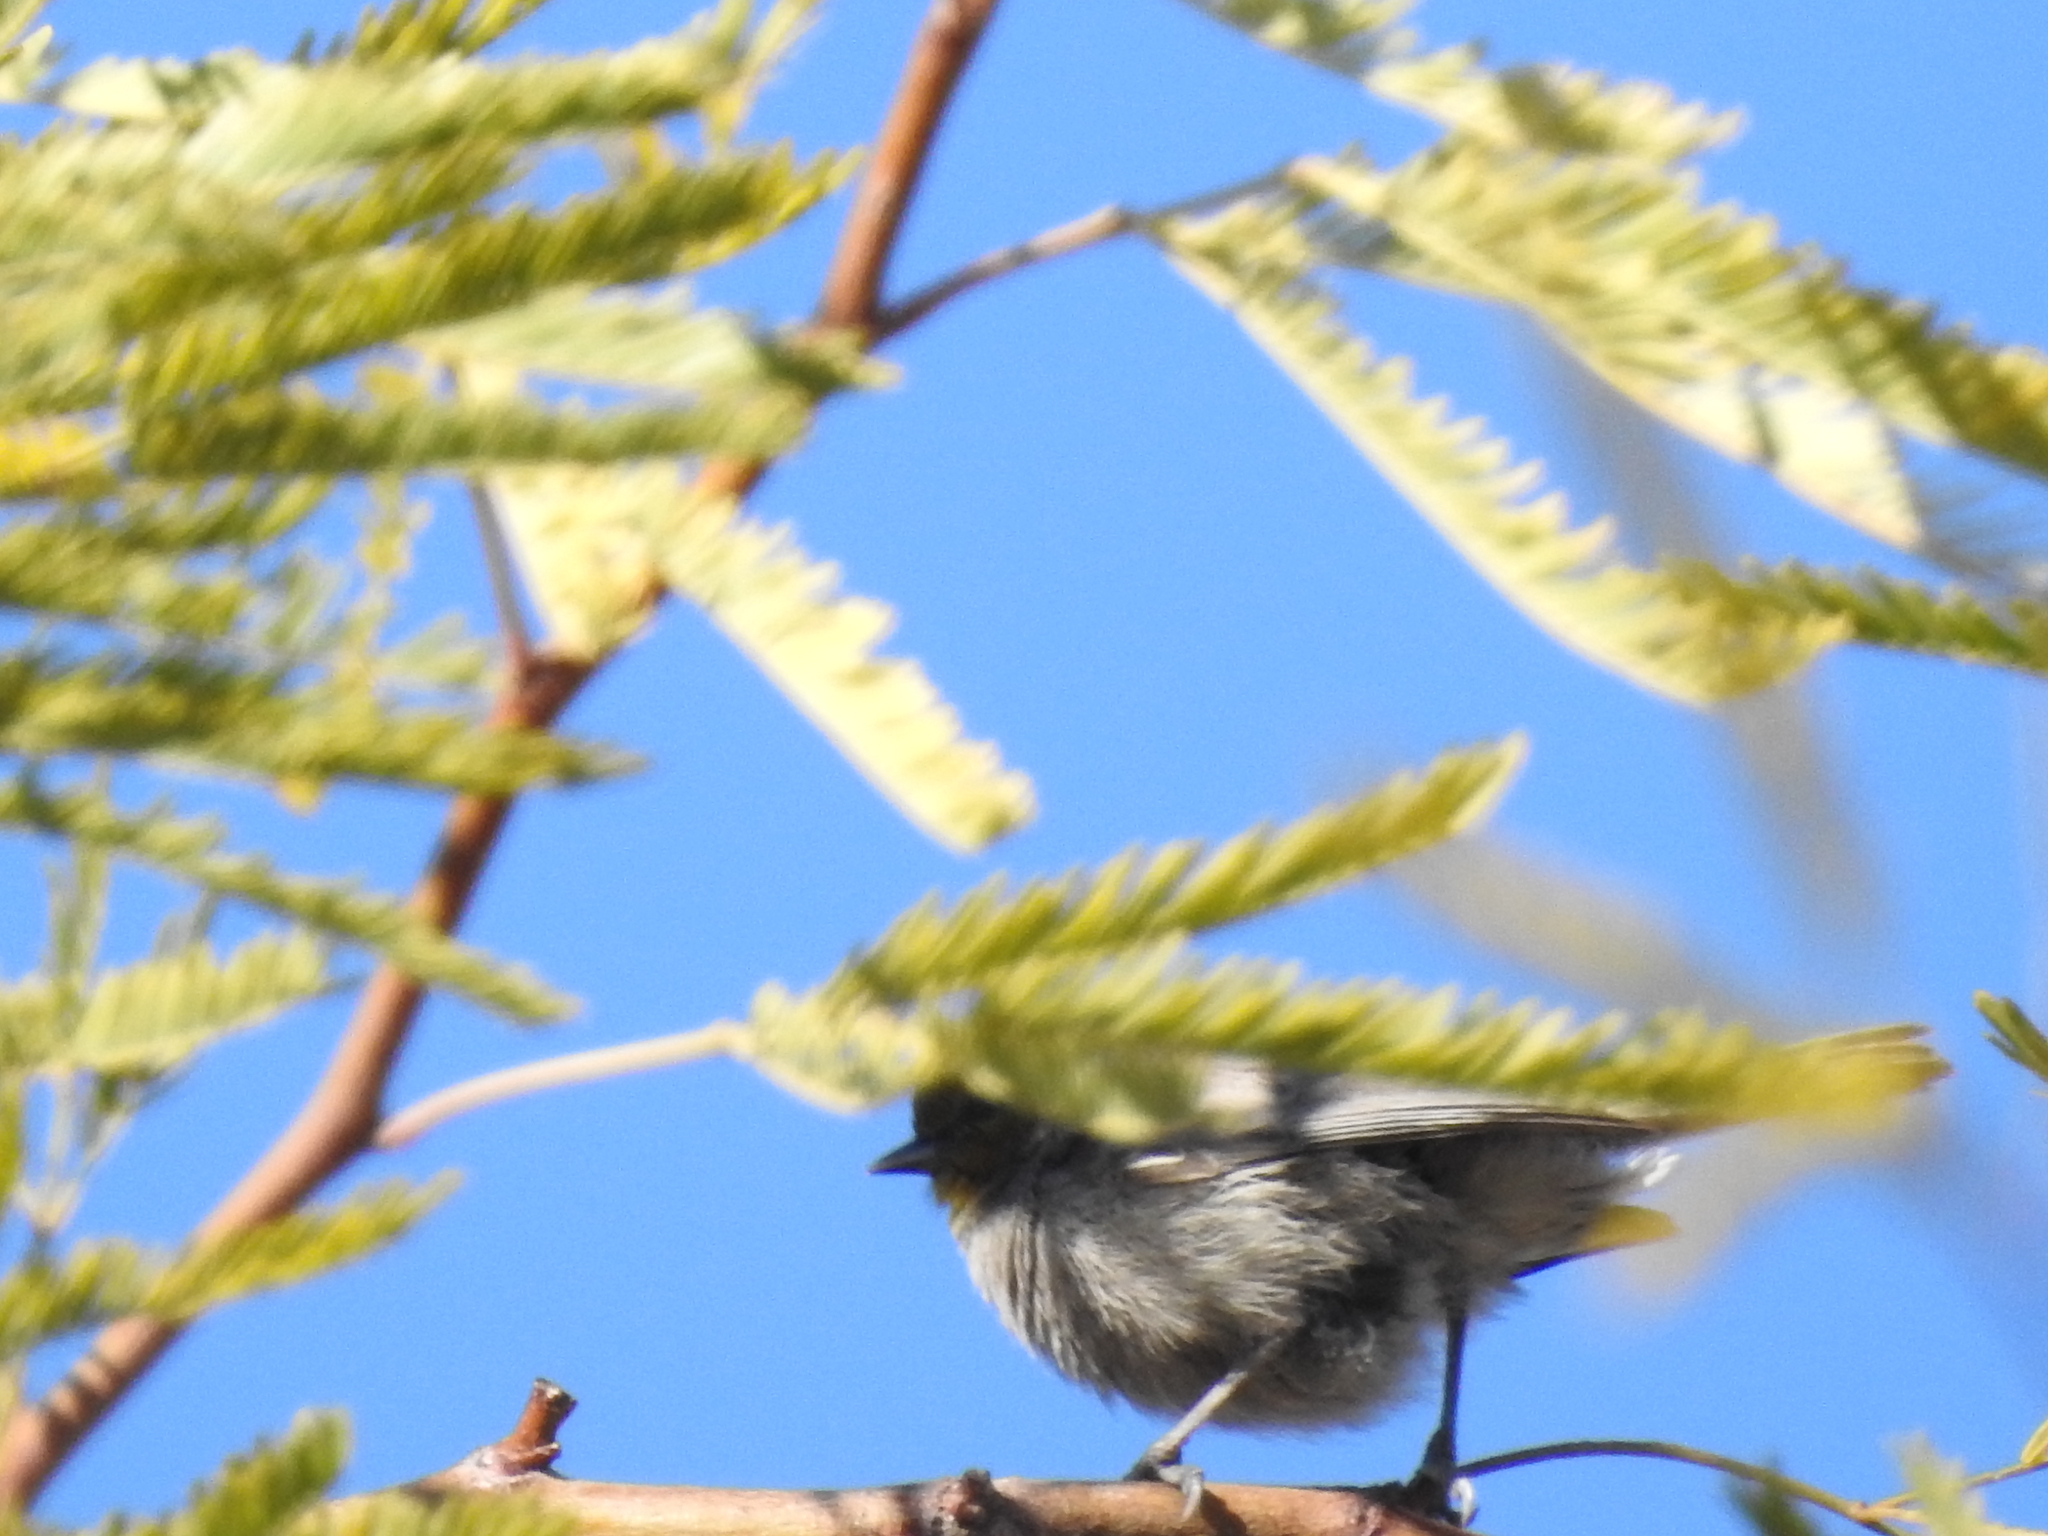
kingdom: Animalia
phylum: Chordata
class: Aves
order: Passeriformes
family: Remizidae
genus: Auriparus
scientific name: Auriparus flaviceps
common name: Verdin
